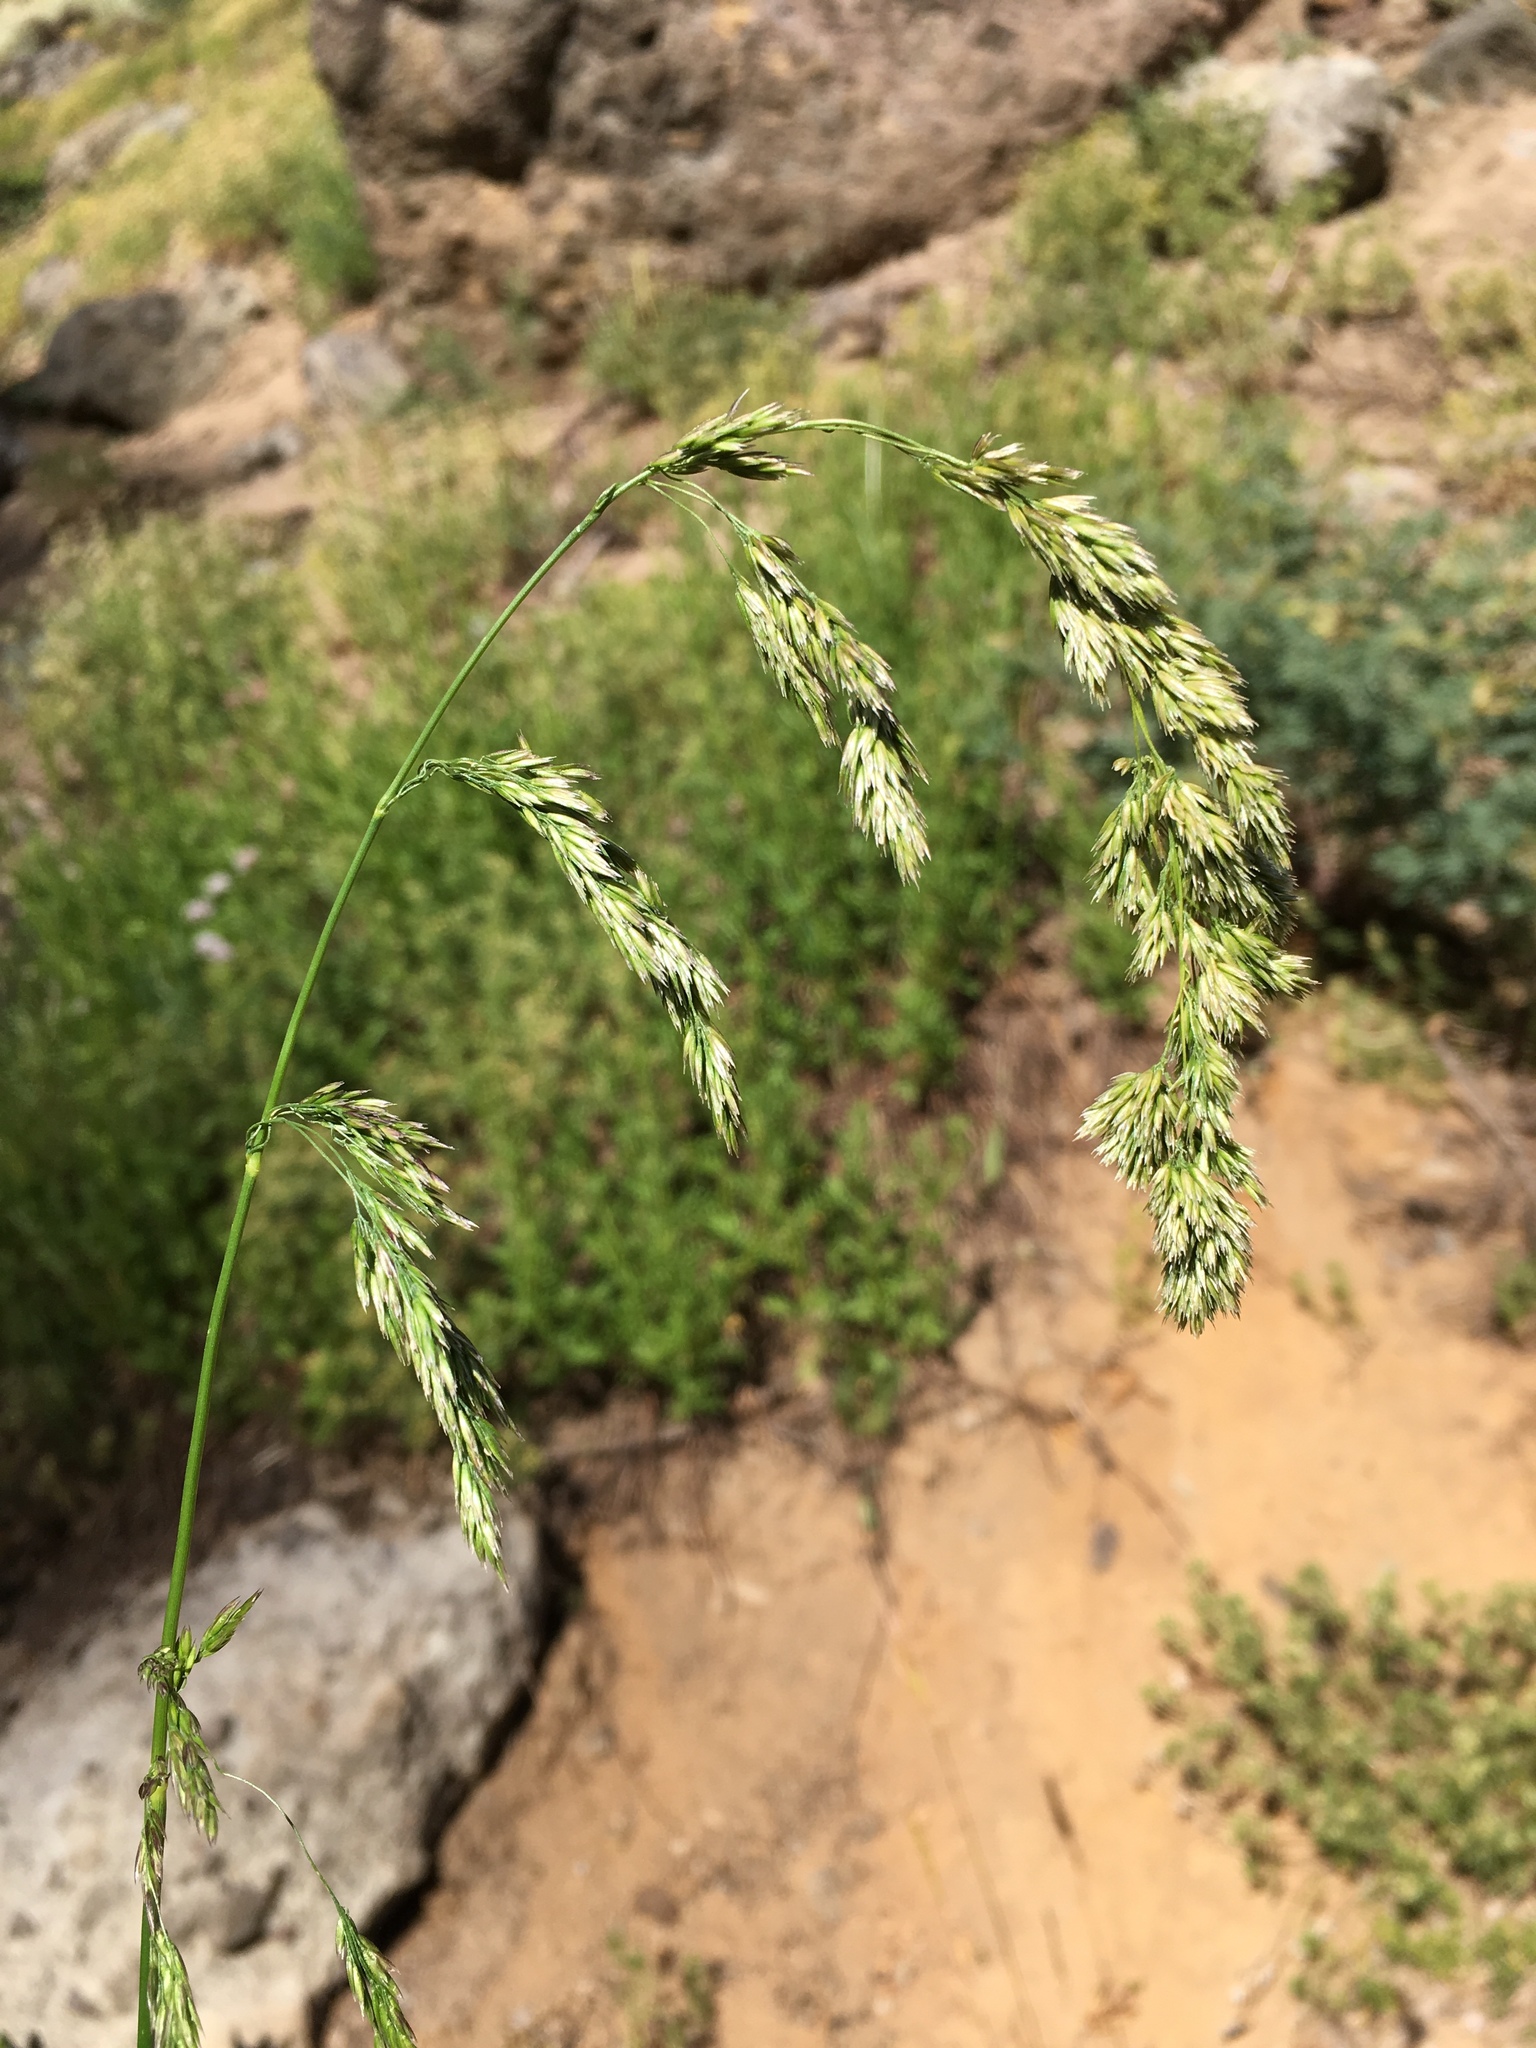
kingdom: Plantae
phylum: Tracheophyta
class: Liliopsida
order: Poales
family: Poaceae
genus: Cinna
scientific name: Cinna latifolia
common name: Drooping woodreed
